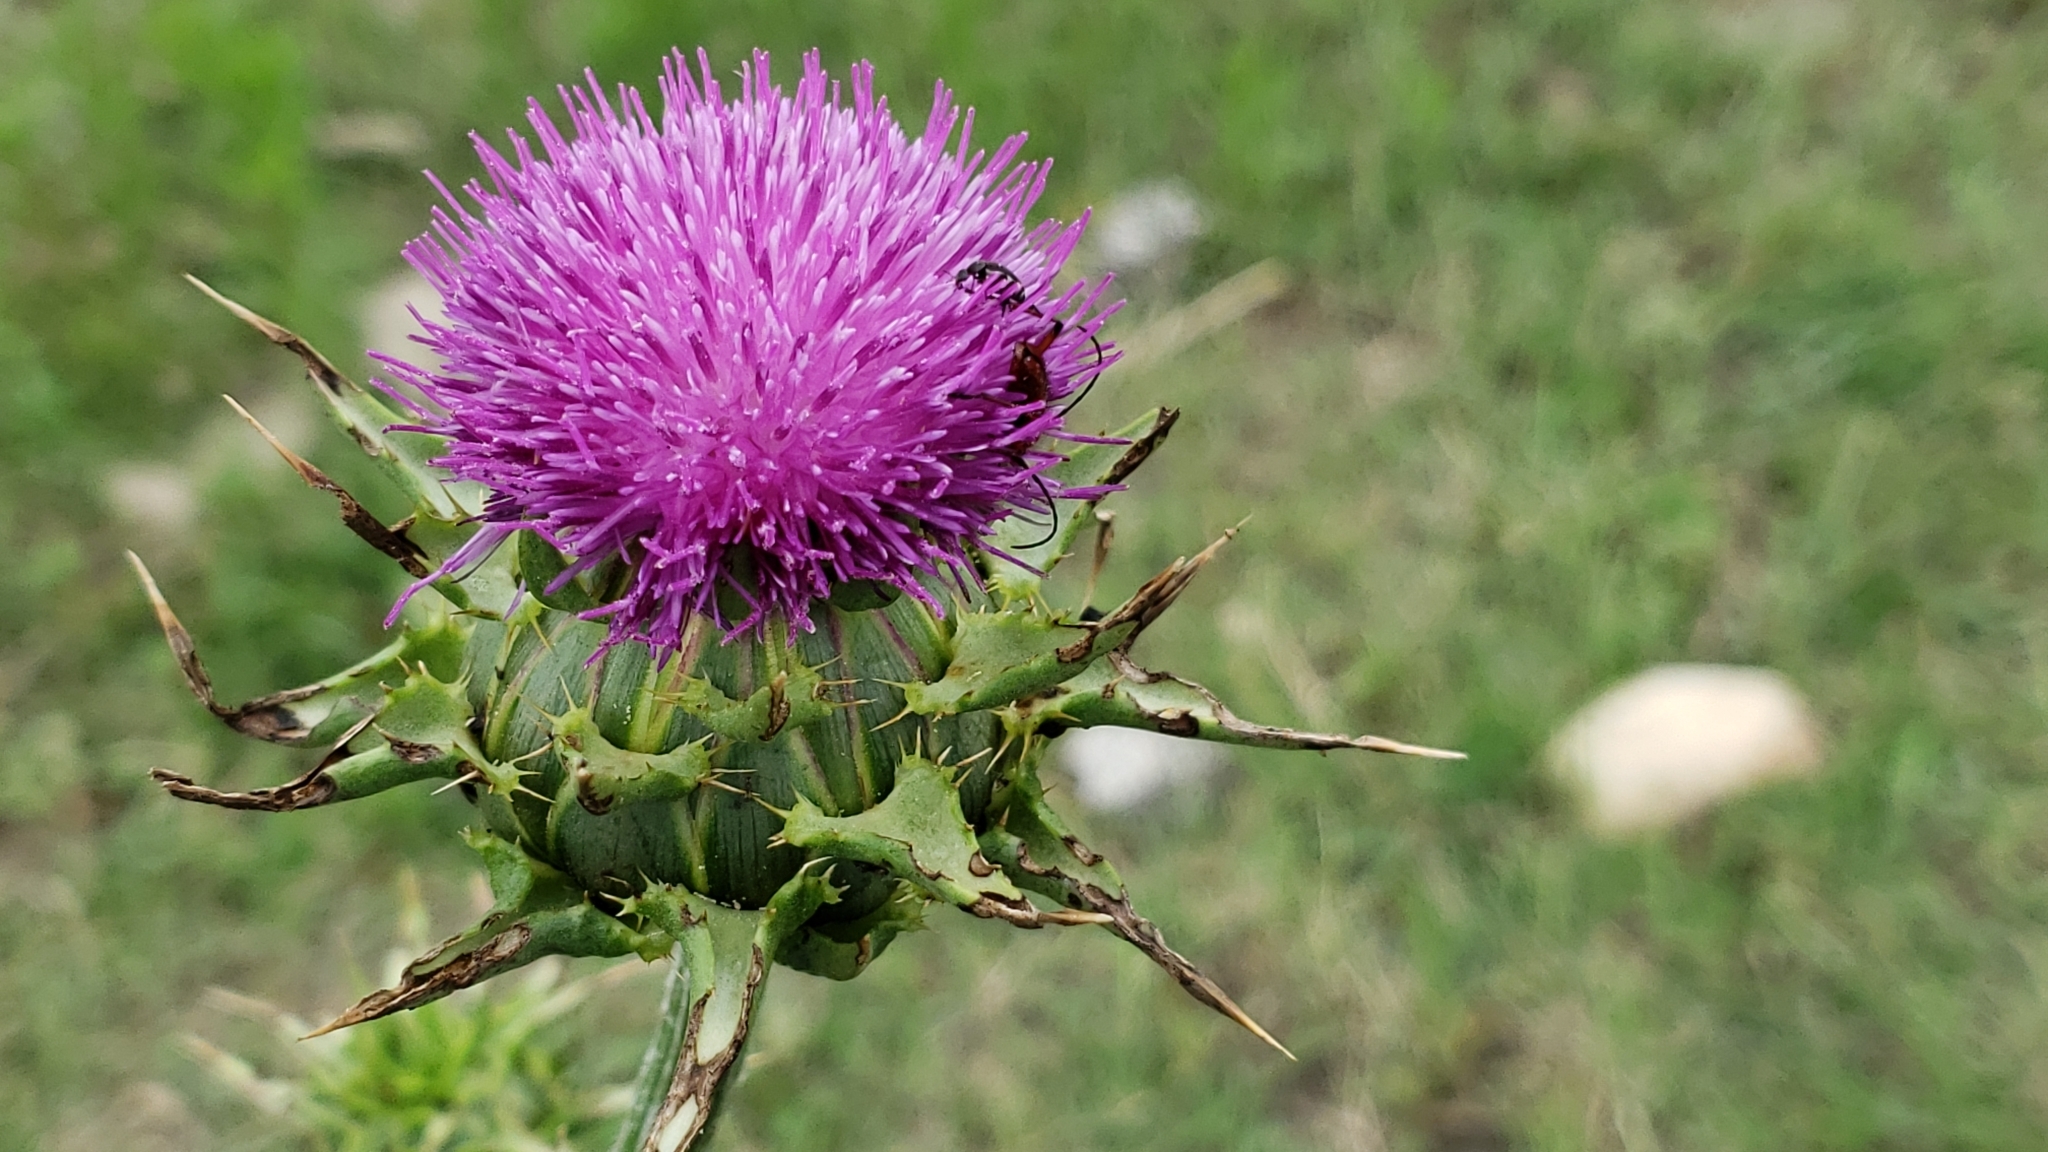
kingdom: Plantae
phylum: Tracheophyta
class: Magnoliopsida
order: Asterales
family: Asteraceae
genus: Silybum
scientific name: Silybum marianum
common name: Milk thistle
